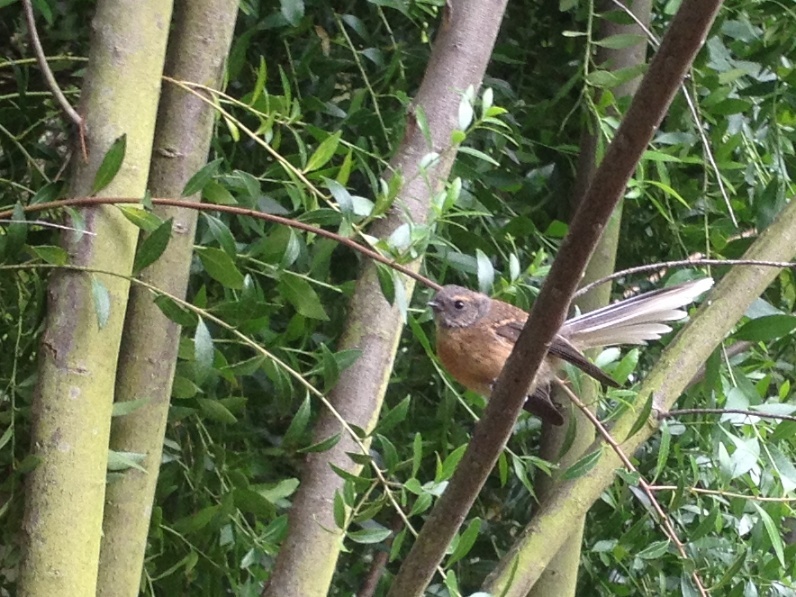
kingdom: Animalia
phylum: Chordata
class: Aves
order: Passeriformes
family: Rhipiduridae
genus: Rhipidura
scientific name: Rhipidura fuliginosa
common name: New zealand fantail
